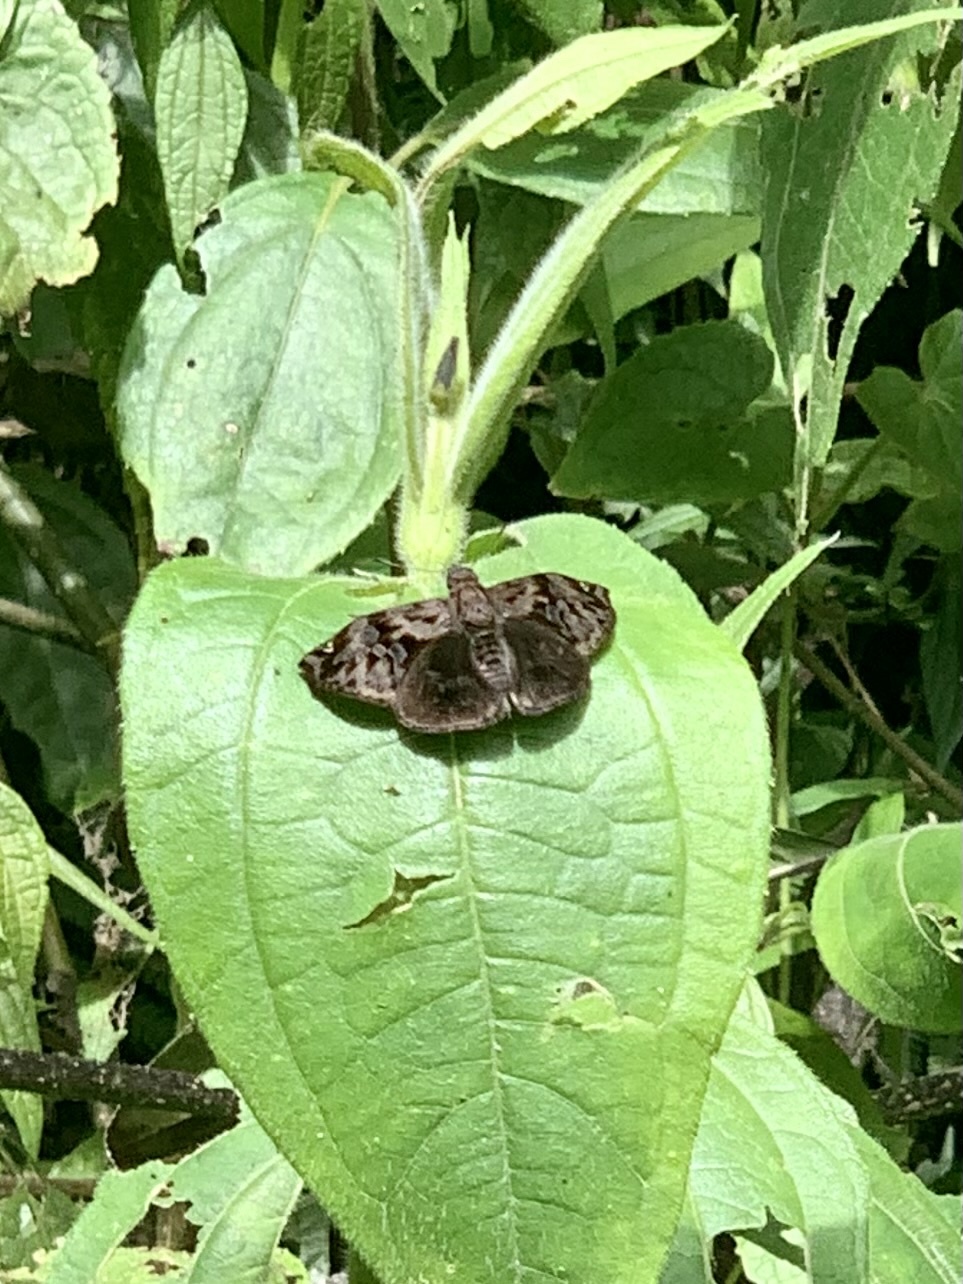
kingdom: Animalia
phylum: Arthropoda
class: Insecta
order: Lepidoptera
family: Hesperiidae
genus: Noctuana
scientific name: Noctuana haematospila
